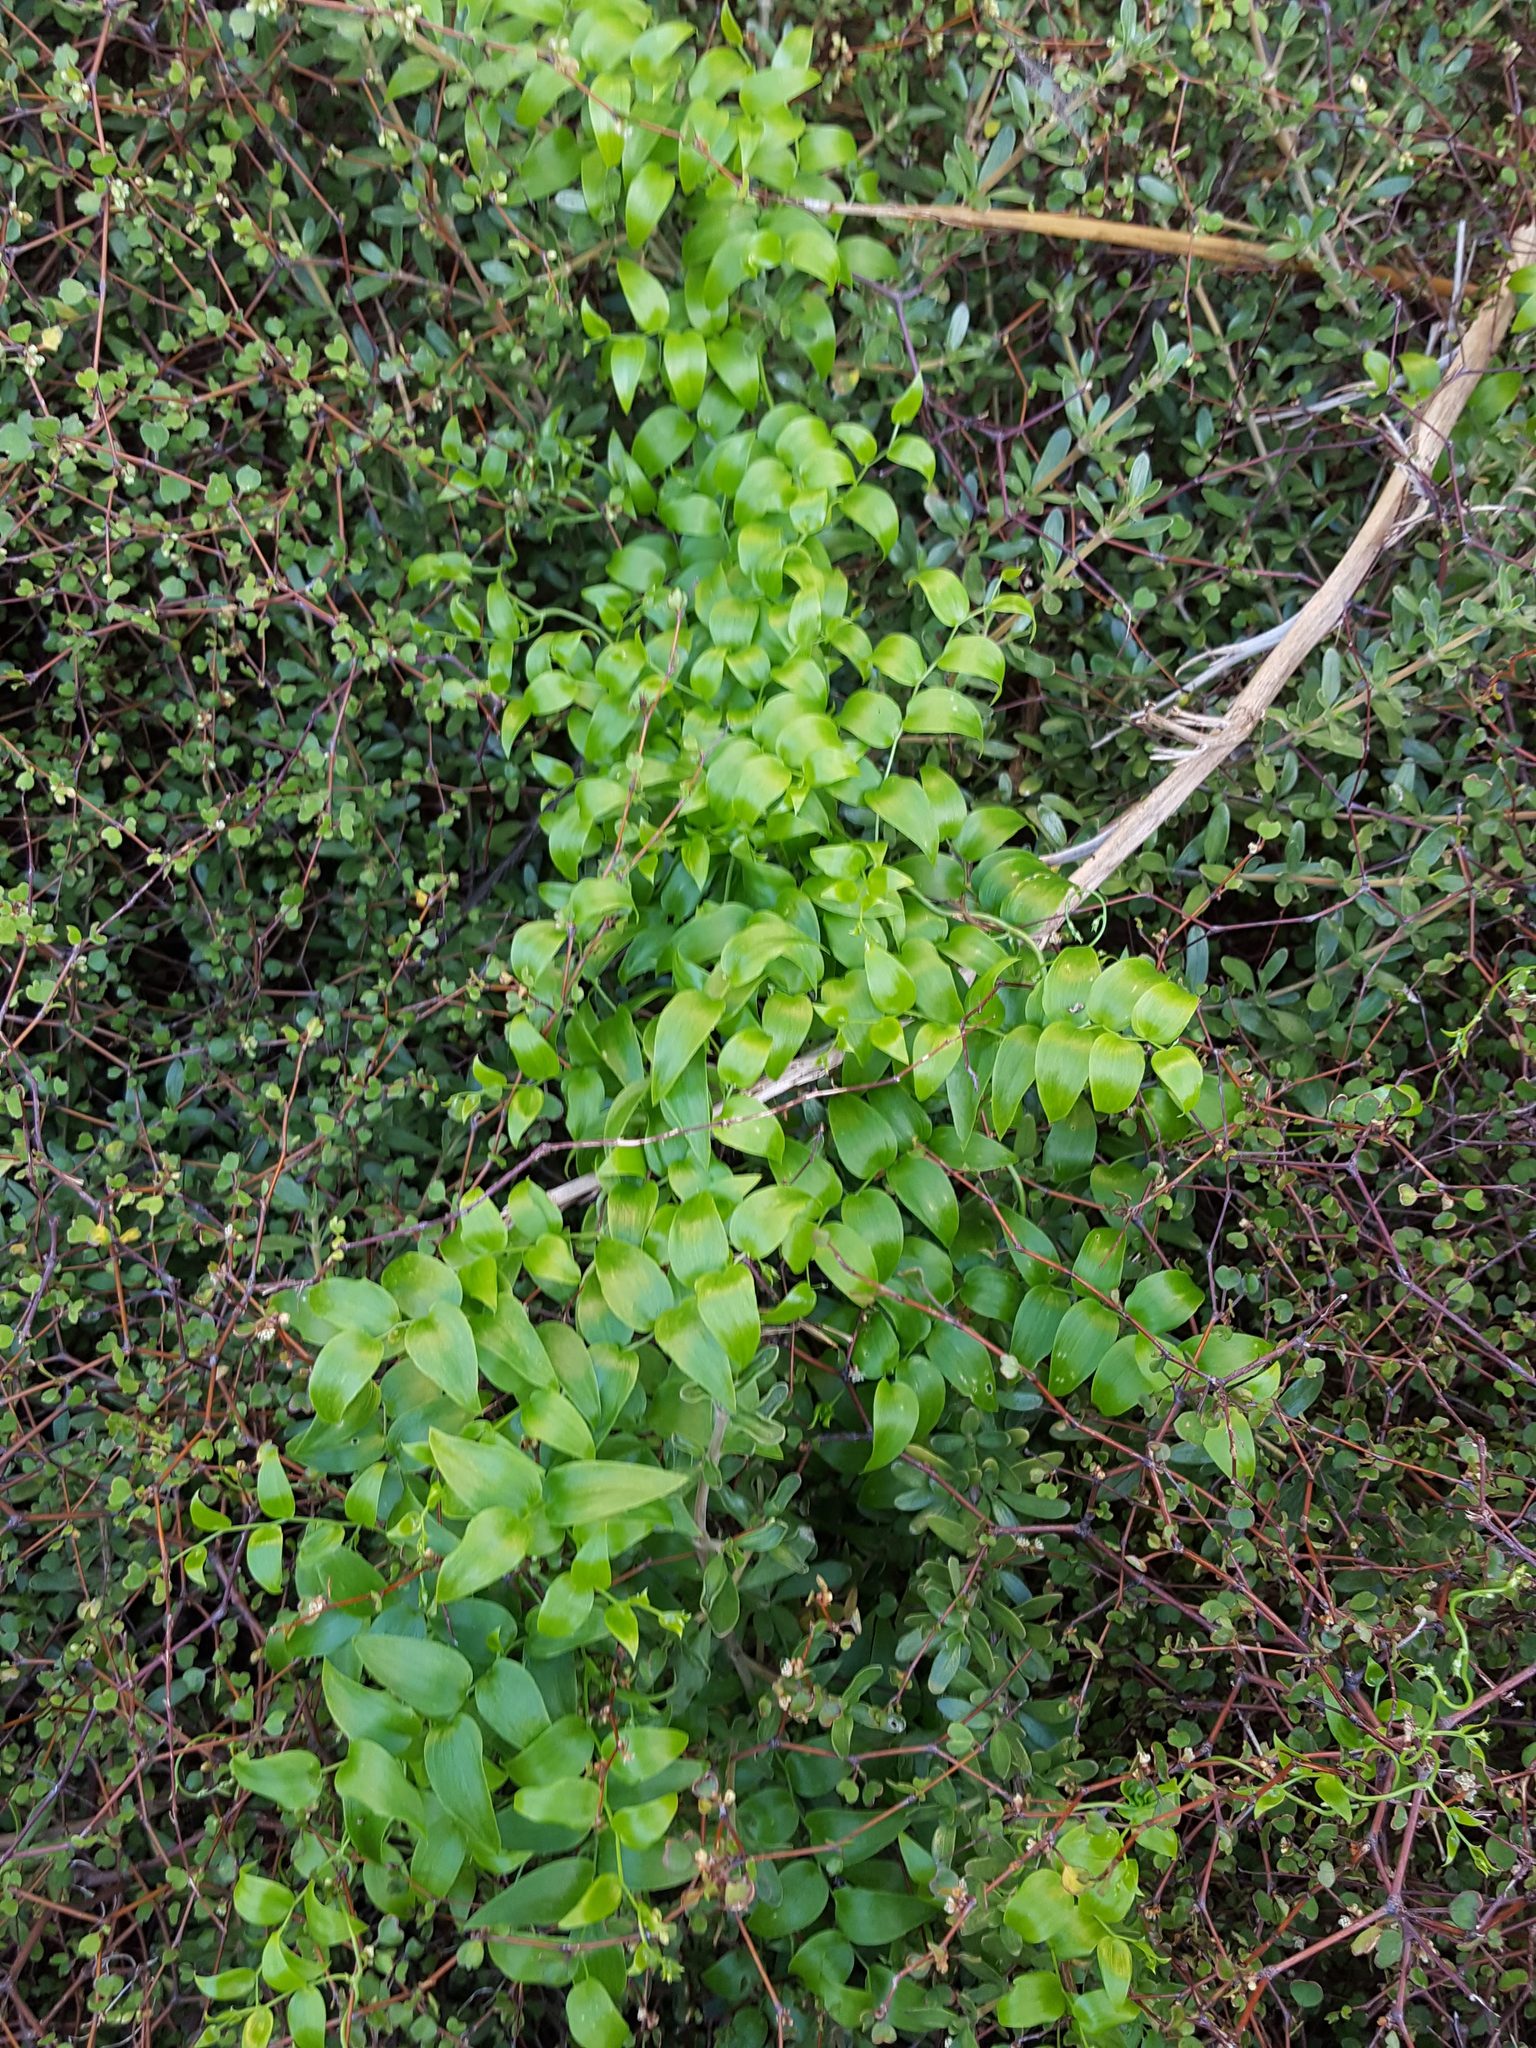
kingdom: Plantae
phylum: Tracheophyta
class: Liliopsida
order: Asparagales
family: Asparagaceae
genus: Asparagus
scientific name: Asparagus asparagoides
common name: African asparagus fern
